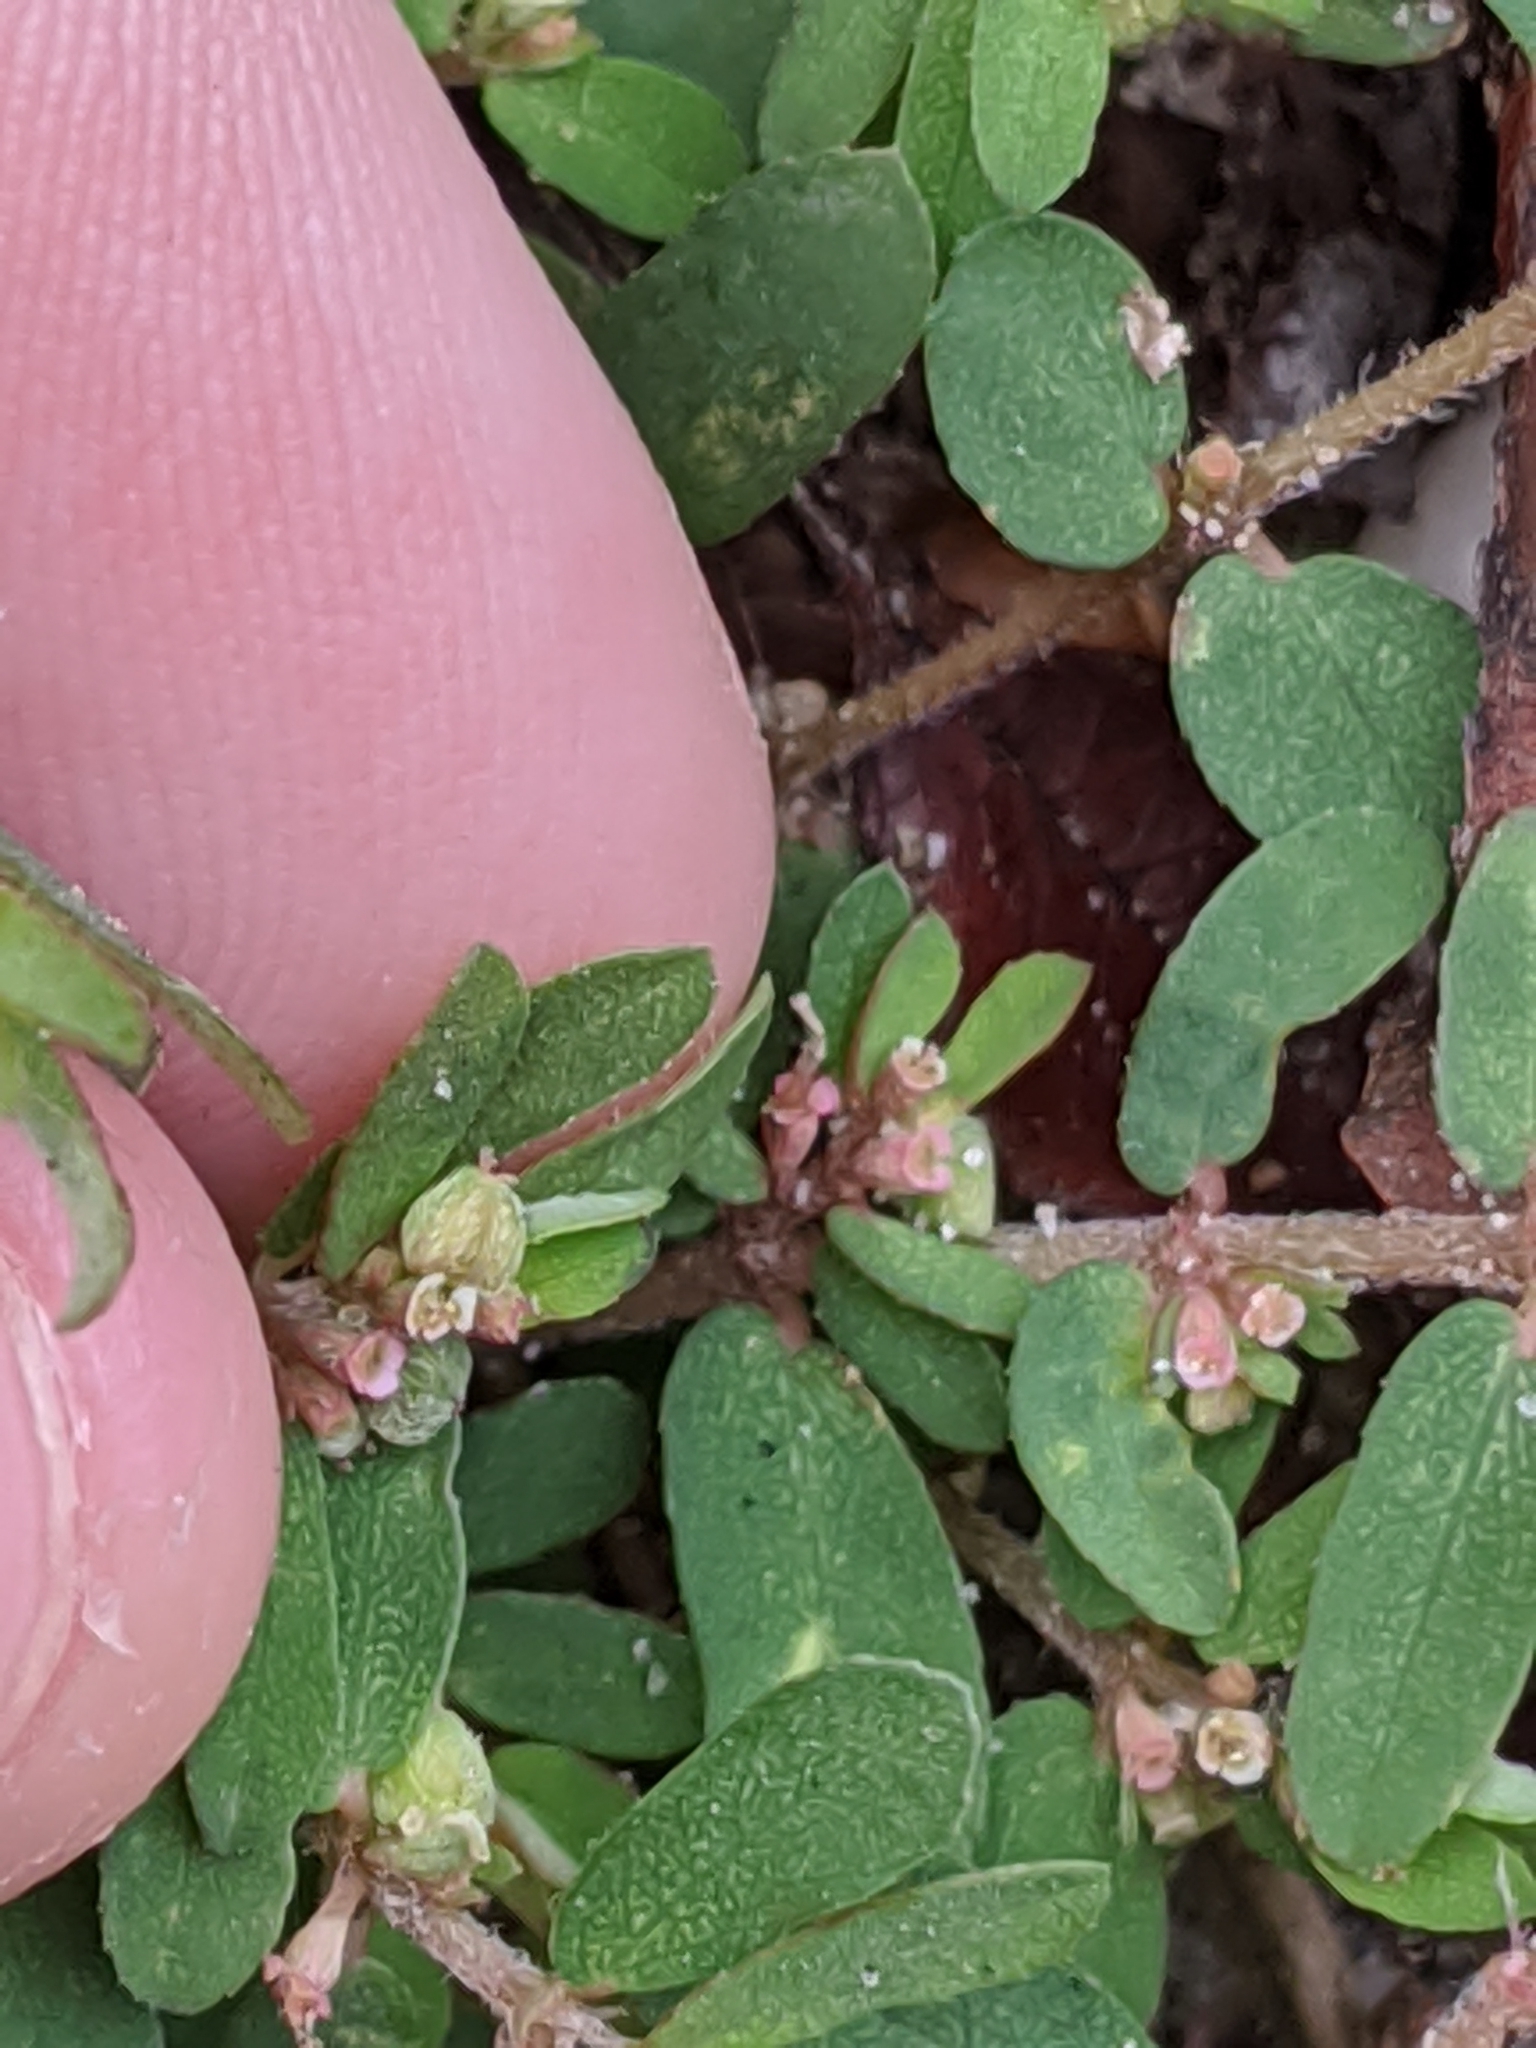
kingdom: Plantae
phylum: Tracheophyta
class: Magnoliopsida
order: Malpighiales
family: Euphorbiaceae
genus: Euphorbia
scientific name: Euphorbia maculata
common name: Spotted spurge
